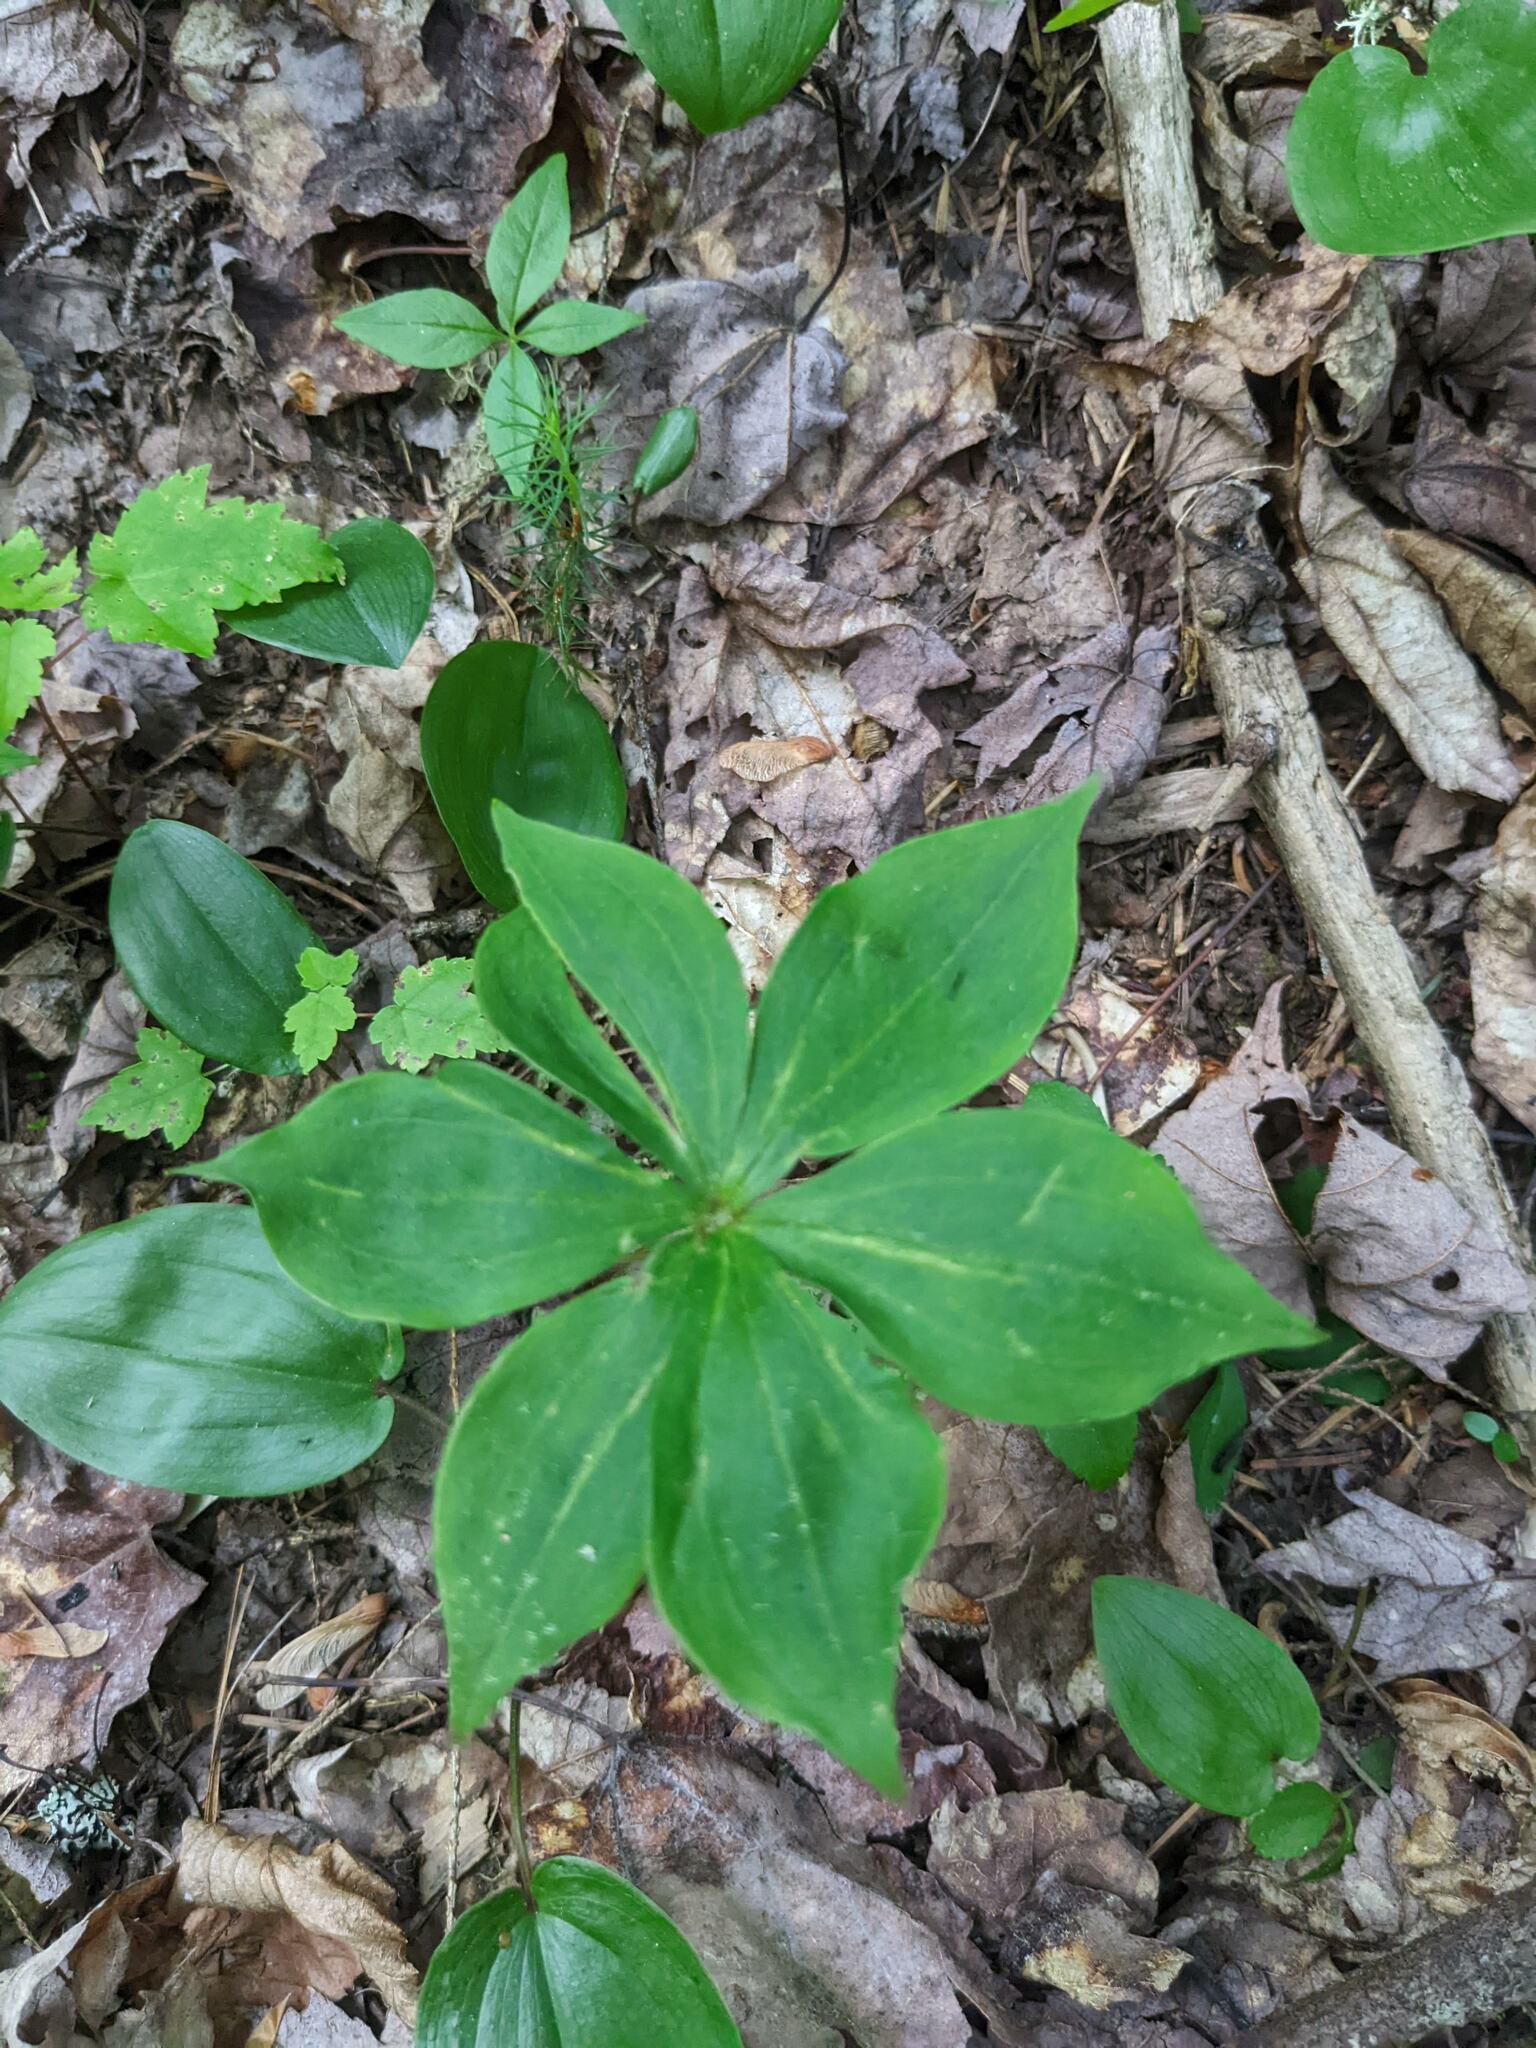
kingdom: Plantae
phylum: Tracheophyta
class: Liliopsida
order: Liliales
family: Liliaceae
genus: Medeola
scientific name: Medeola virginiana
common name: Indian cucumber-root
